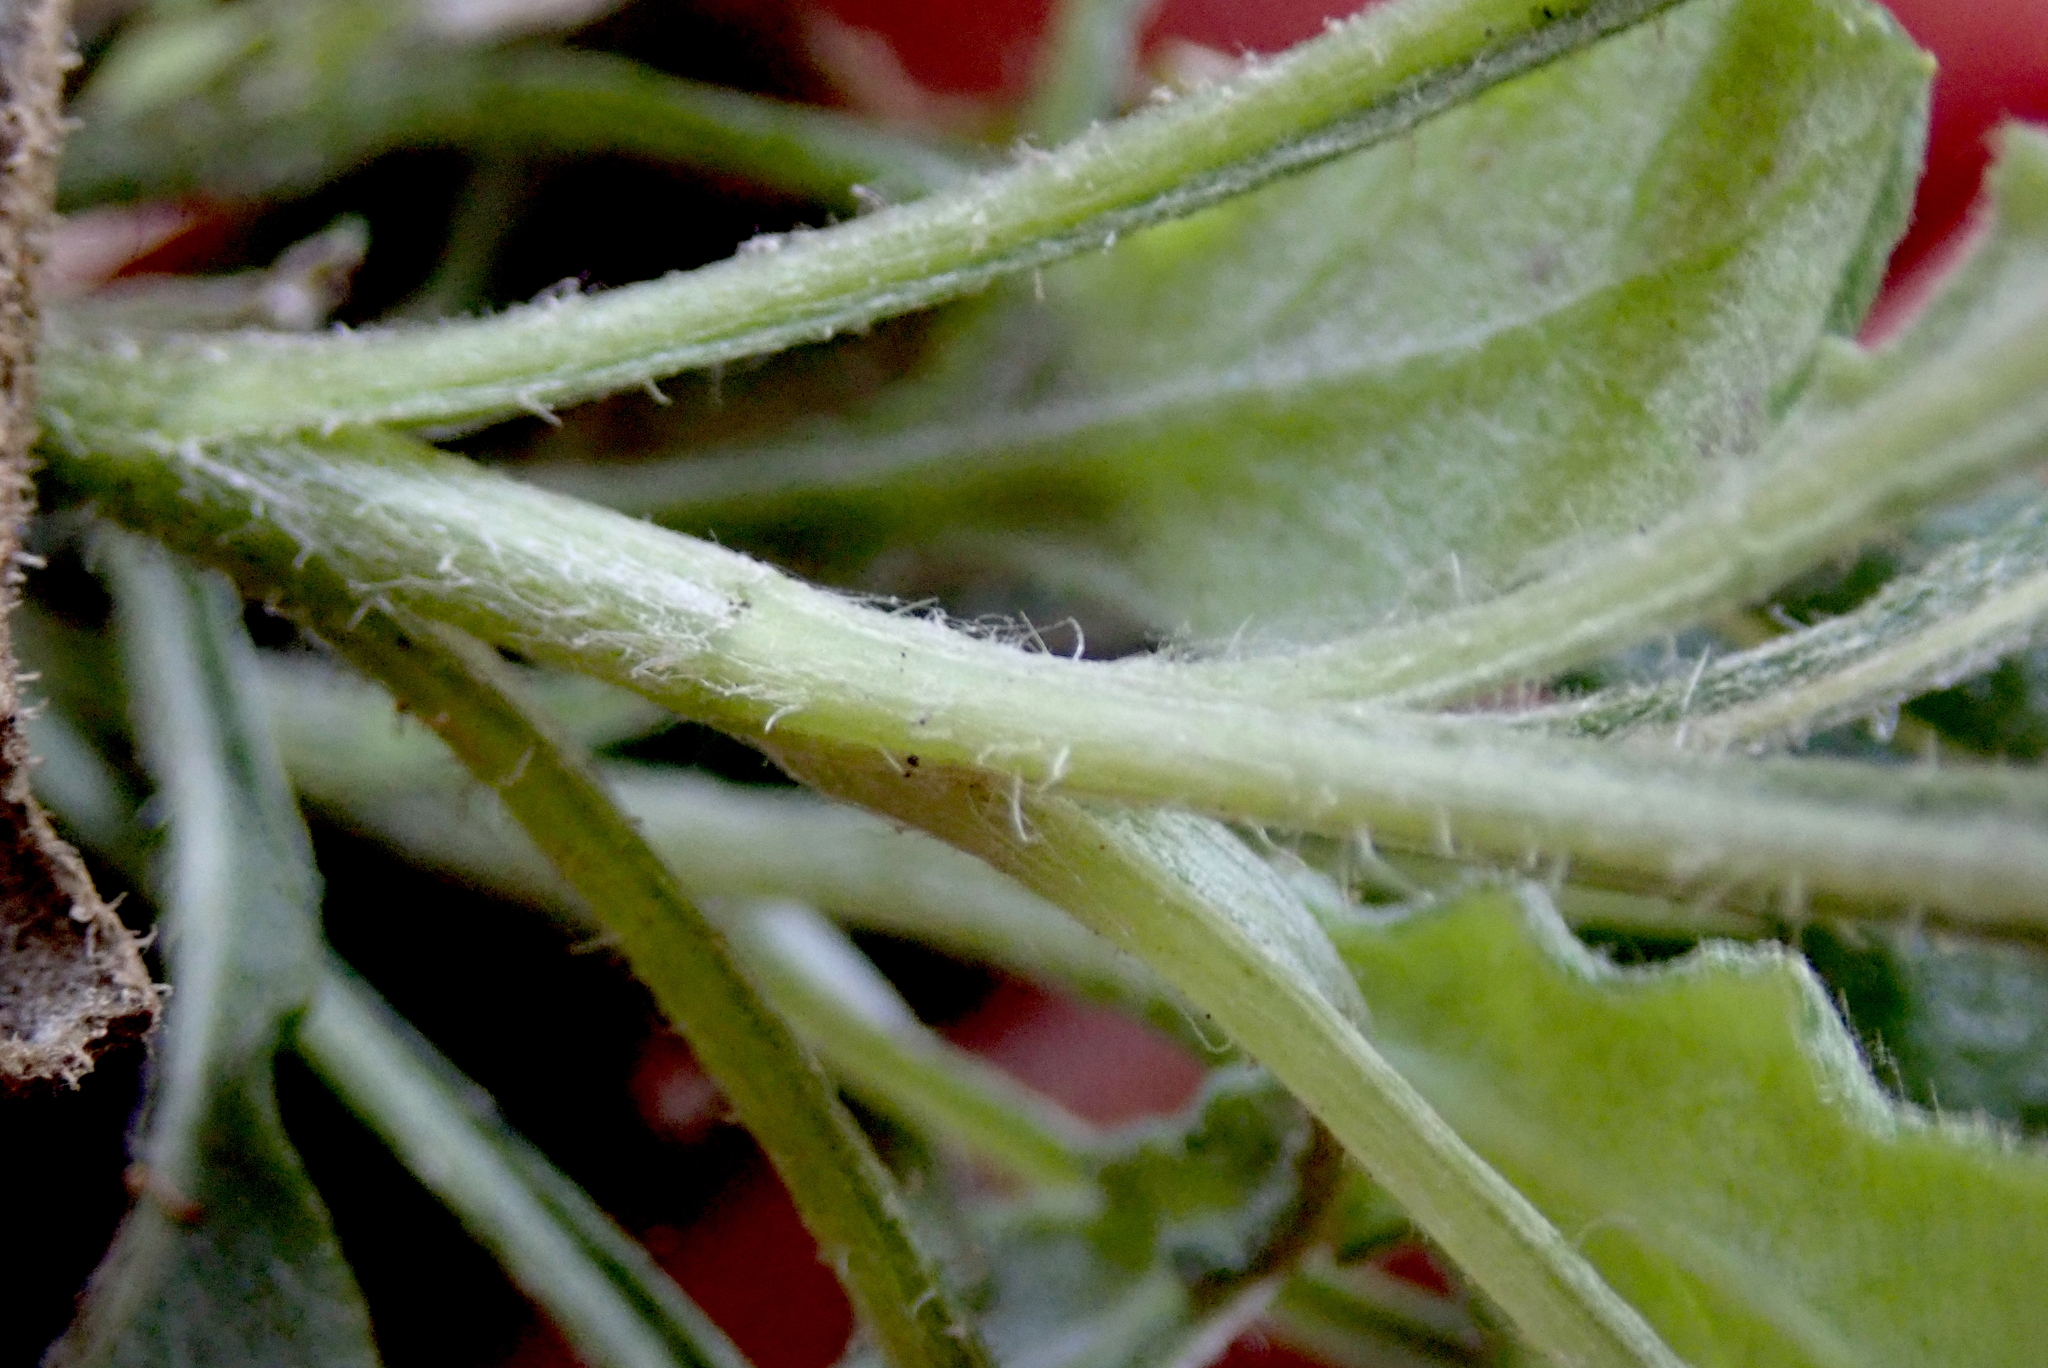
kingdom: Plantae
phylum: Tracheophyta
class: Magnoliopsida
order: Asterales
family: Asteraceae
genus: Senecio
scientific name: Senecio glomeratus
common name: Cutleaf burnweed
